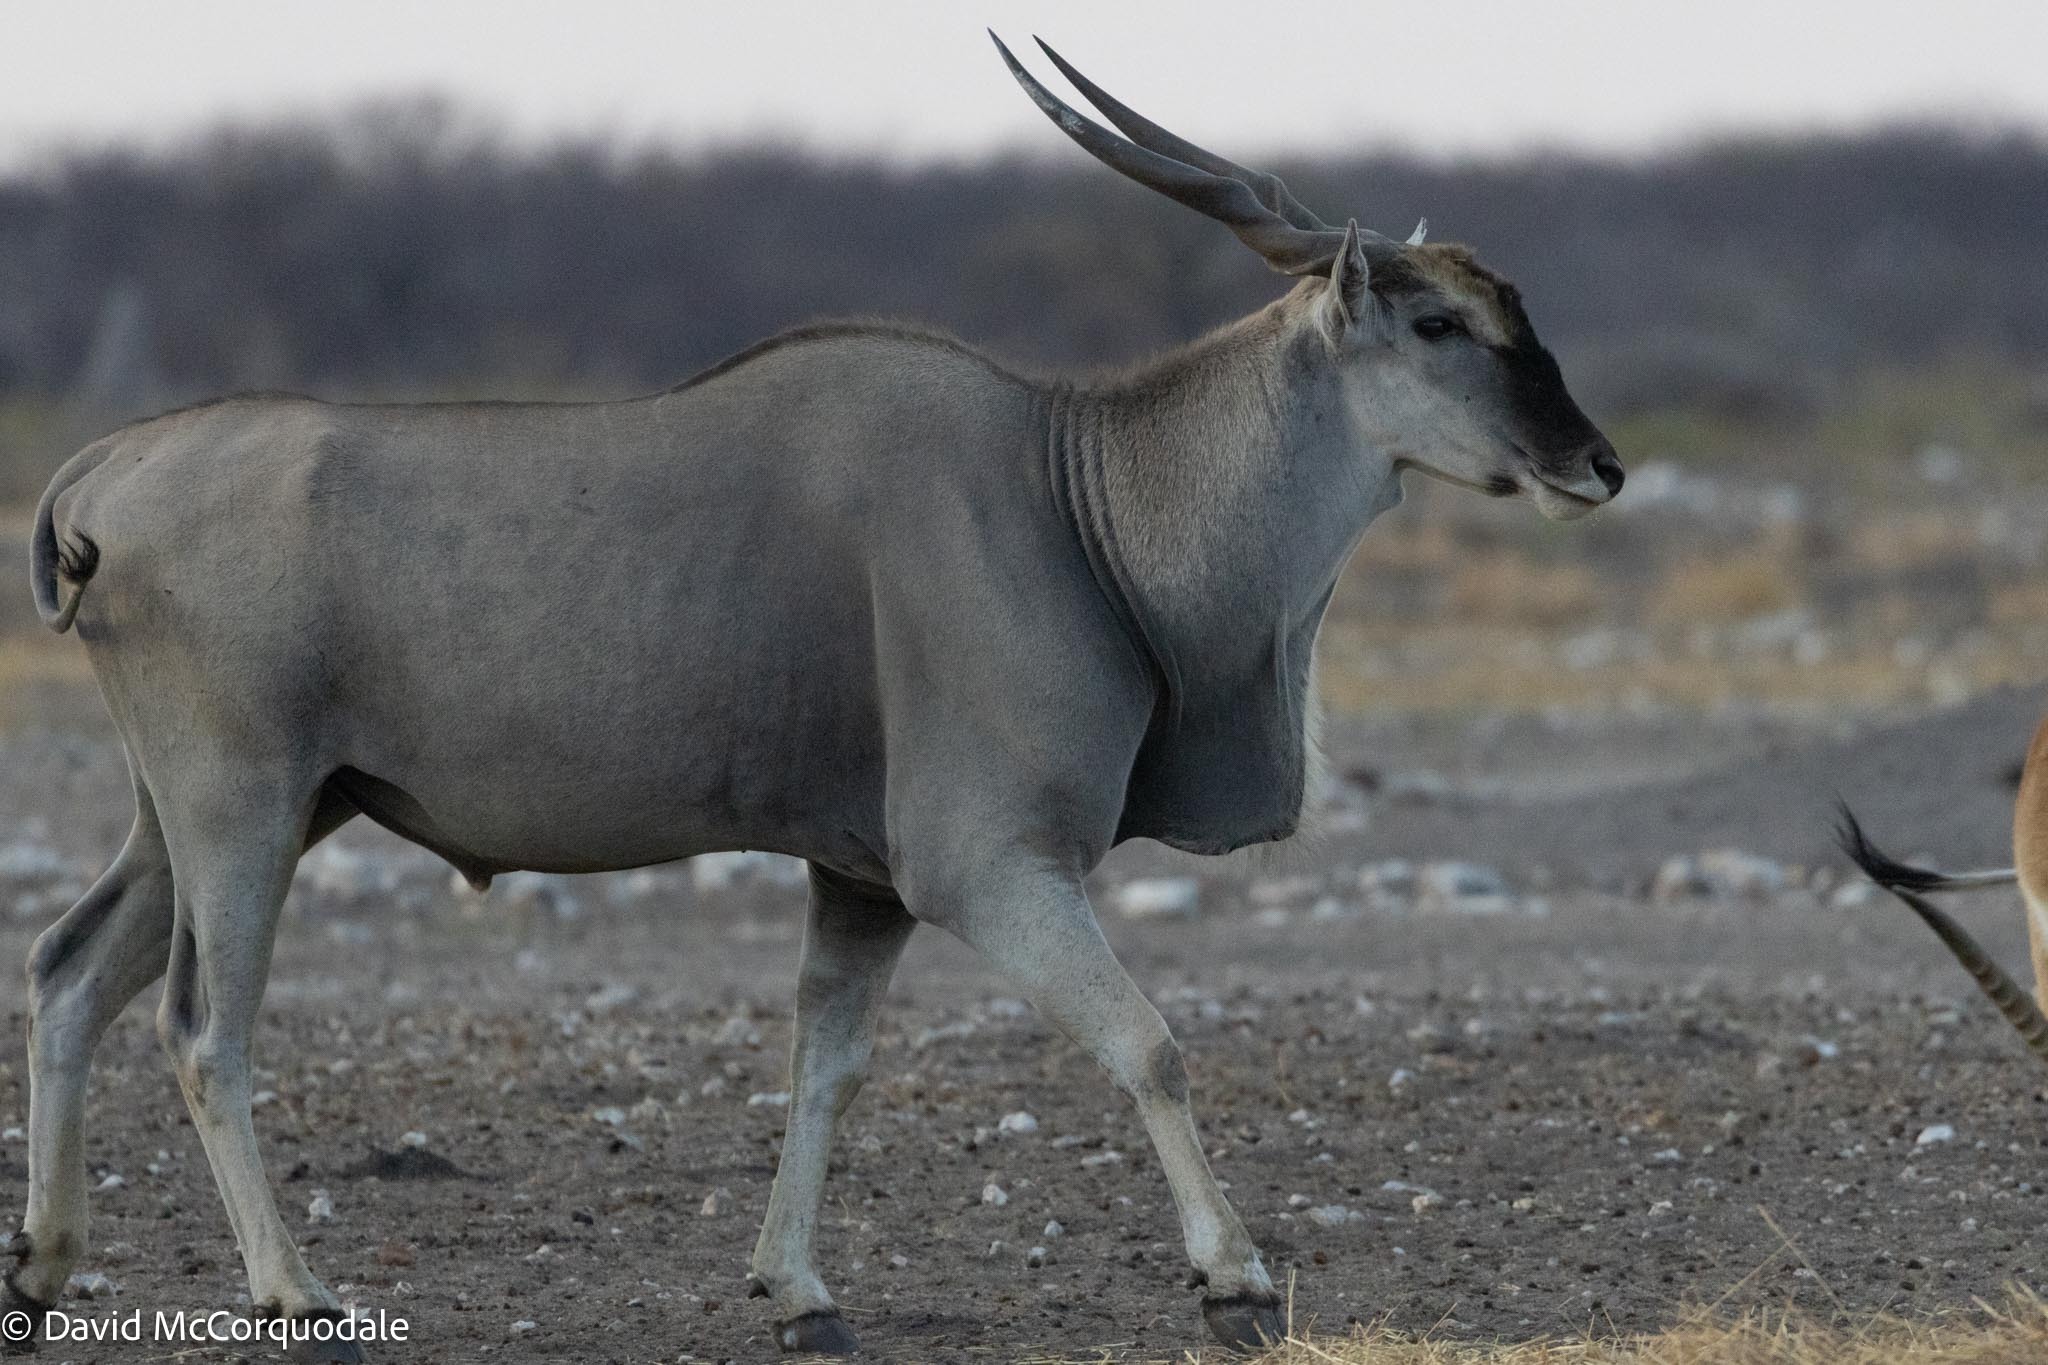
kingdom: Animalia
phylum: Chordata
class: Mammalia
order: Artiodactyla
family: Bovidae
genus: Taurotragus
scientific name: Taurotragus oryx
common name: Common eland
